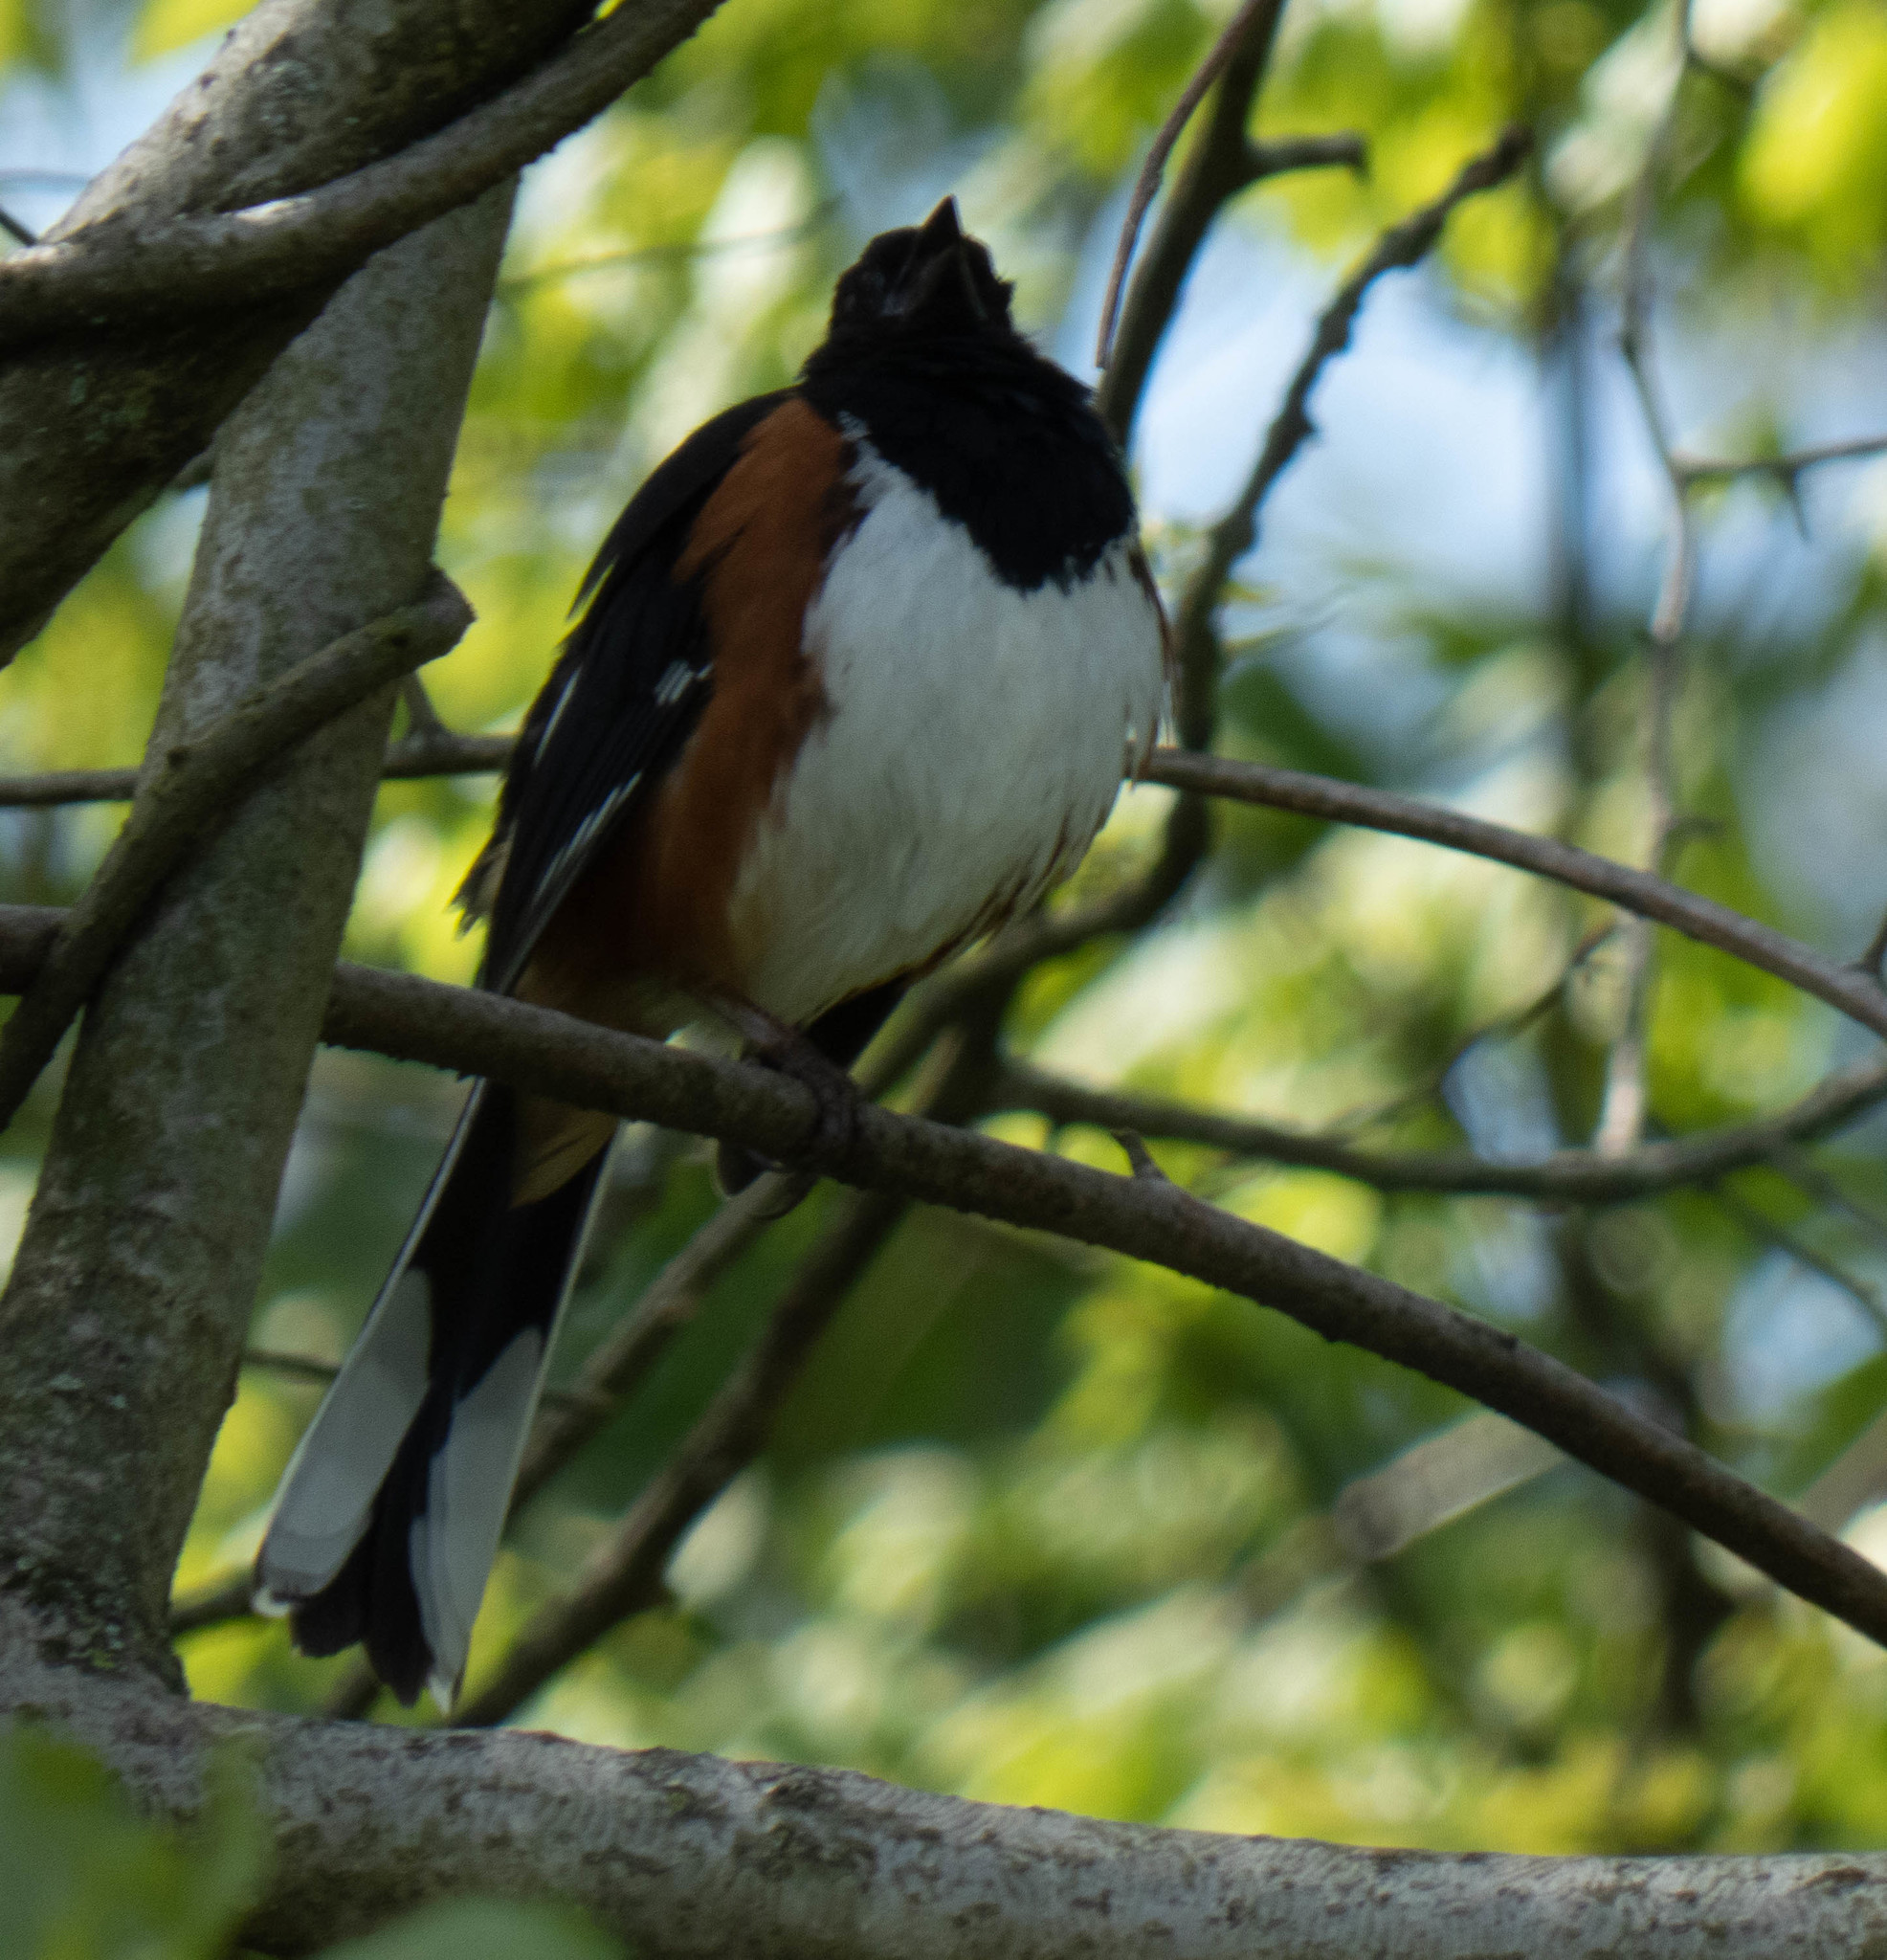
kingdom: Animalia
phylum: Chordata
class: Aves
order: Passeriformes
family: Passerellidae
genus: Pipilo
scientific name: Pipilo erythrophthalmus
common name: Eastern towhee
